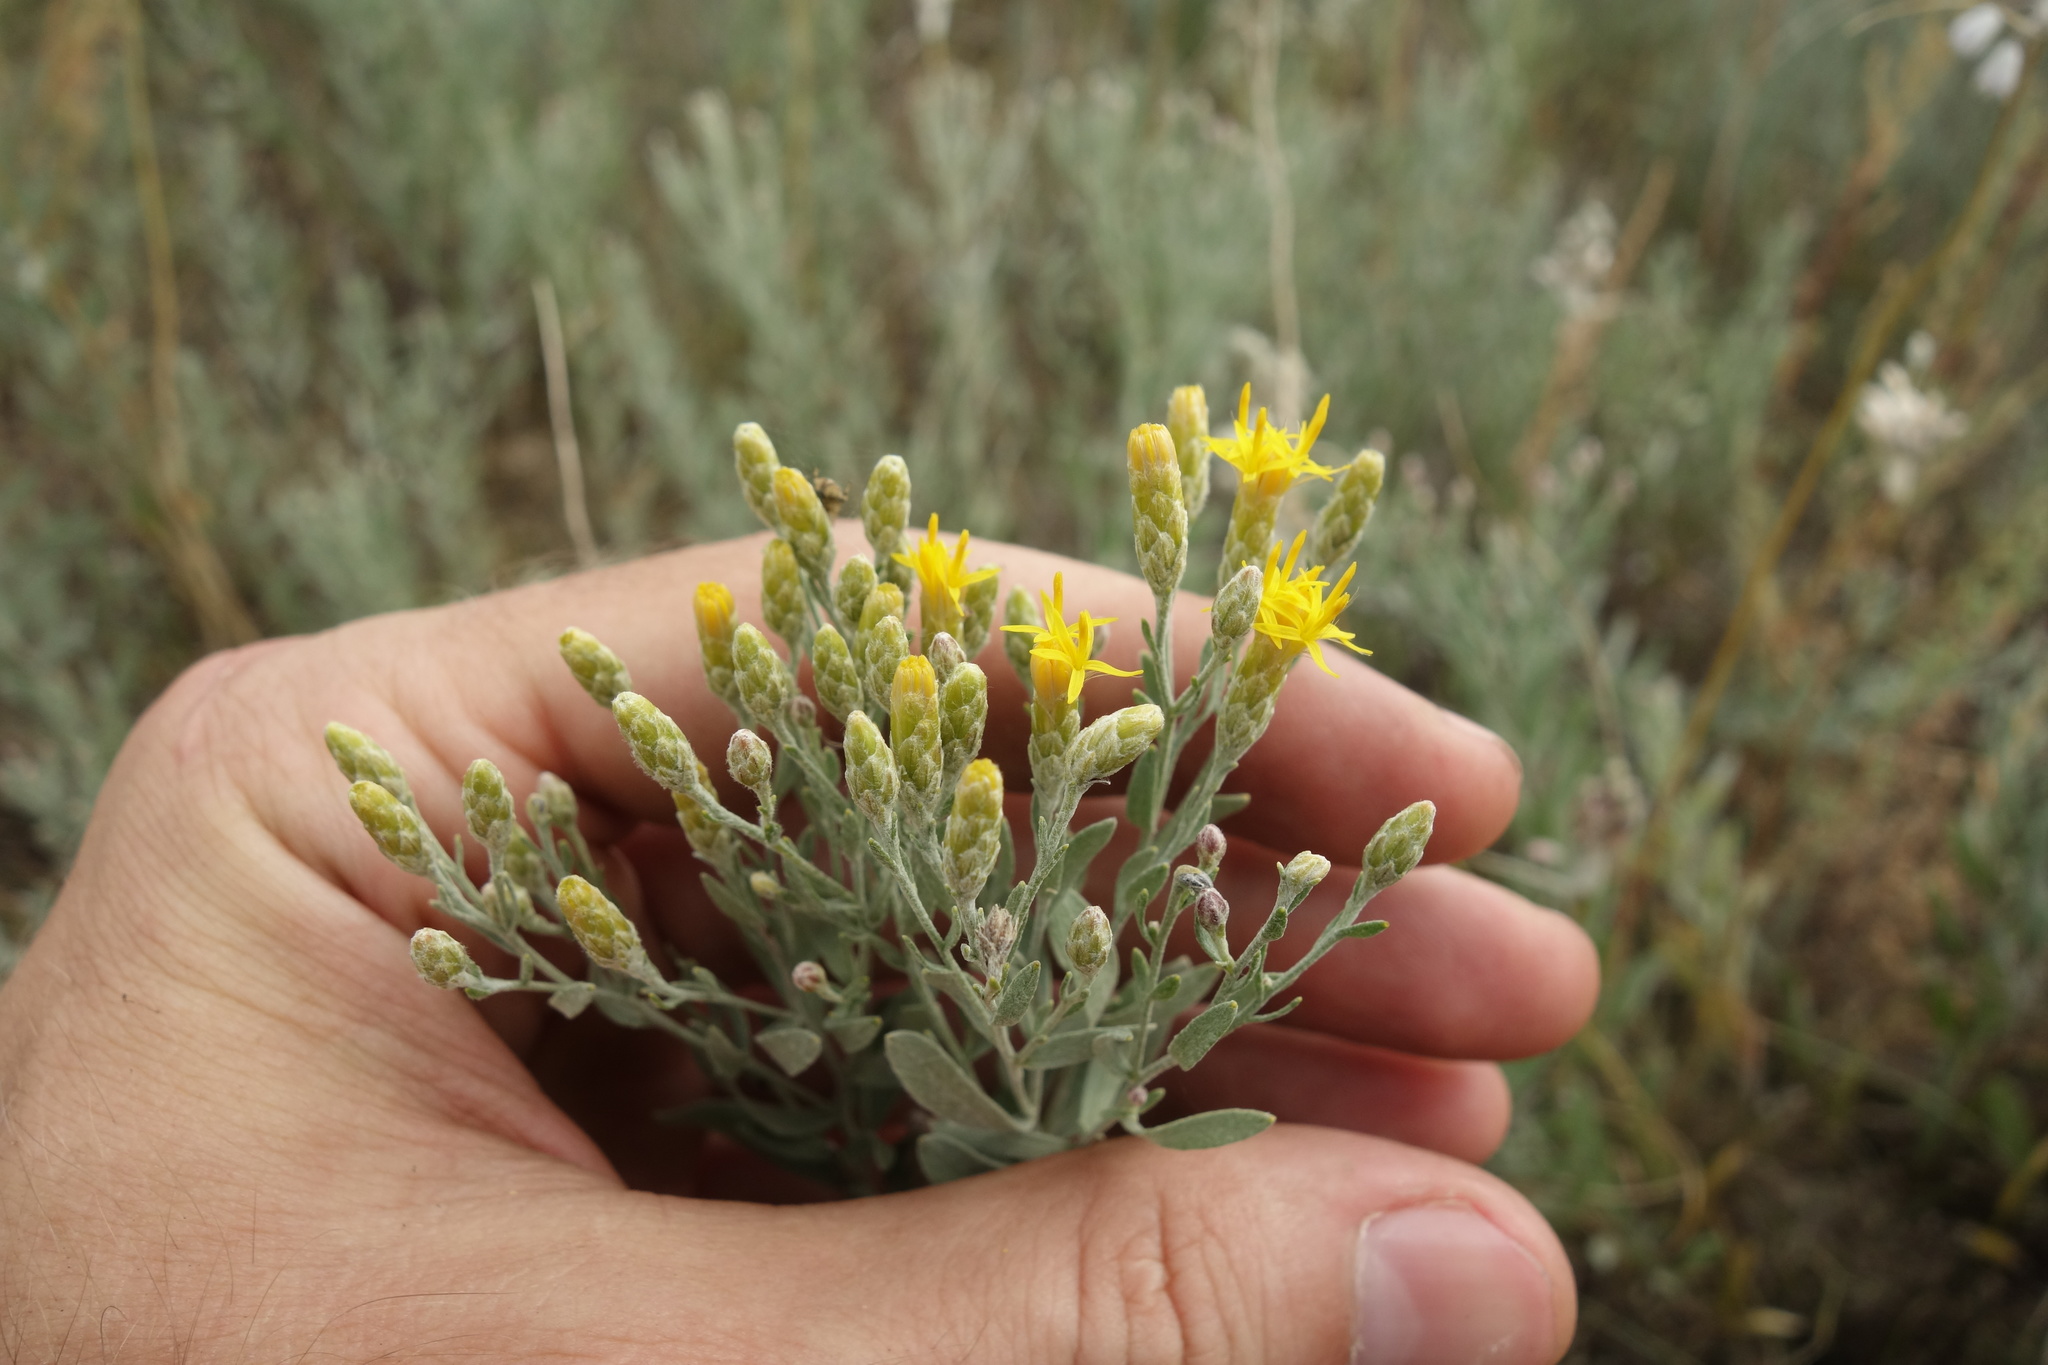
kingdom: Plantae
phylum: Tracheophyta
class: Magnoliopsida
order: Asterales
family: Asteraceae
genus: Galatella
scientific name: Galatella villosa
